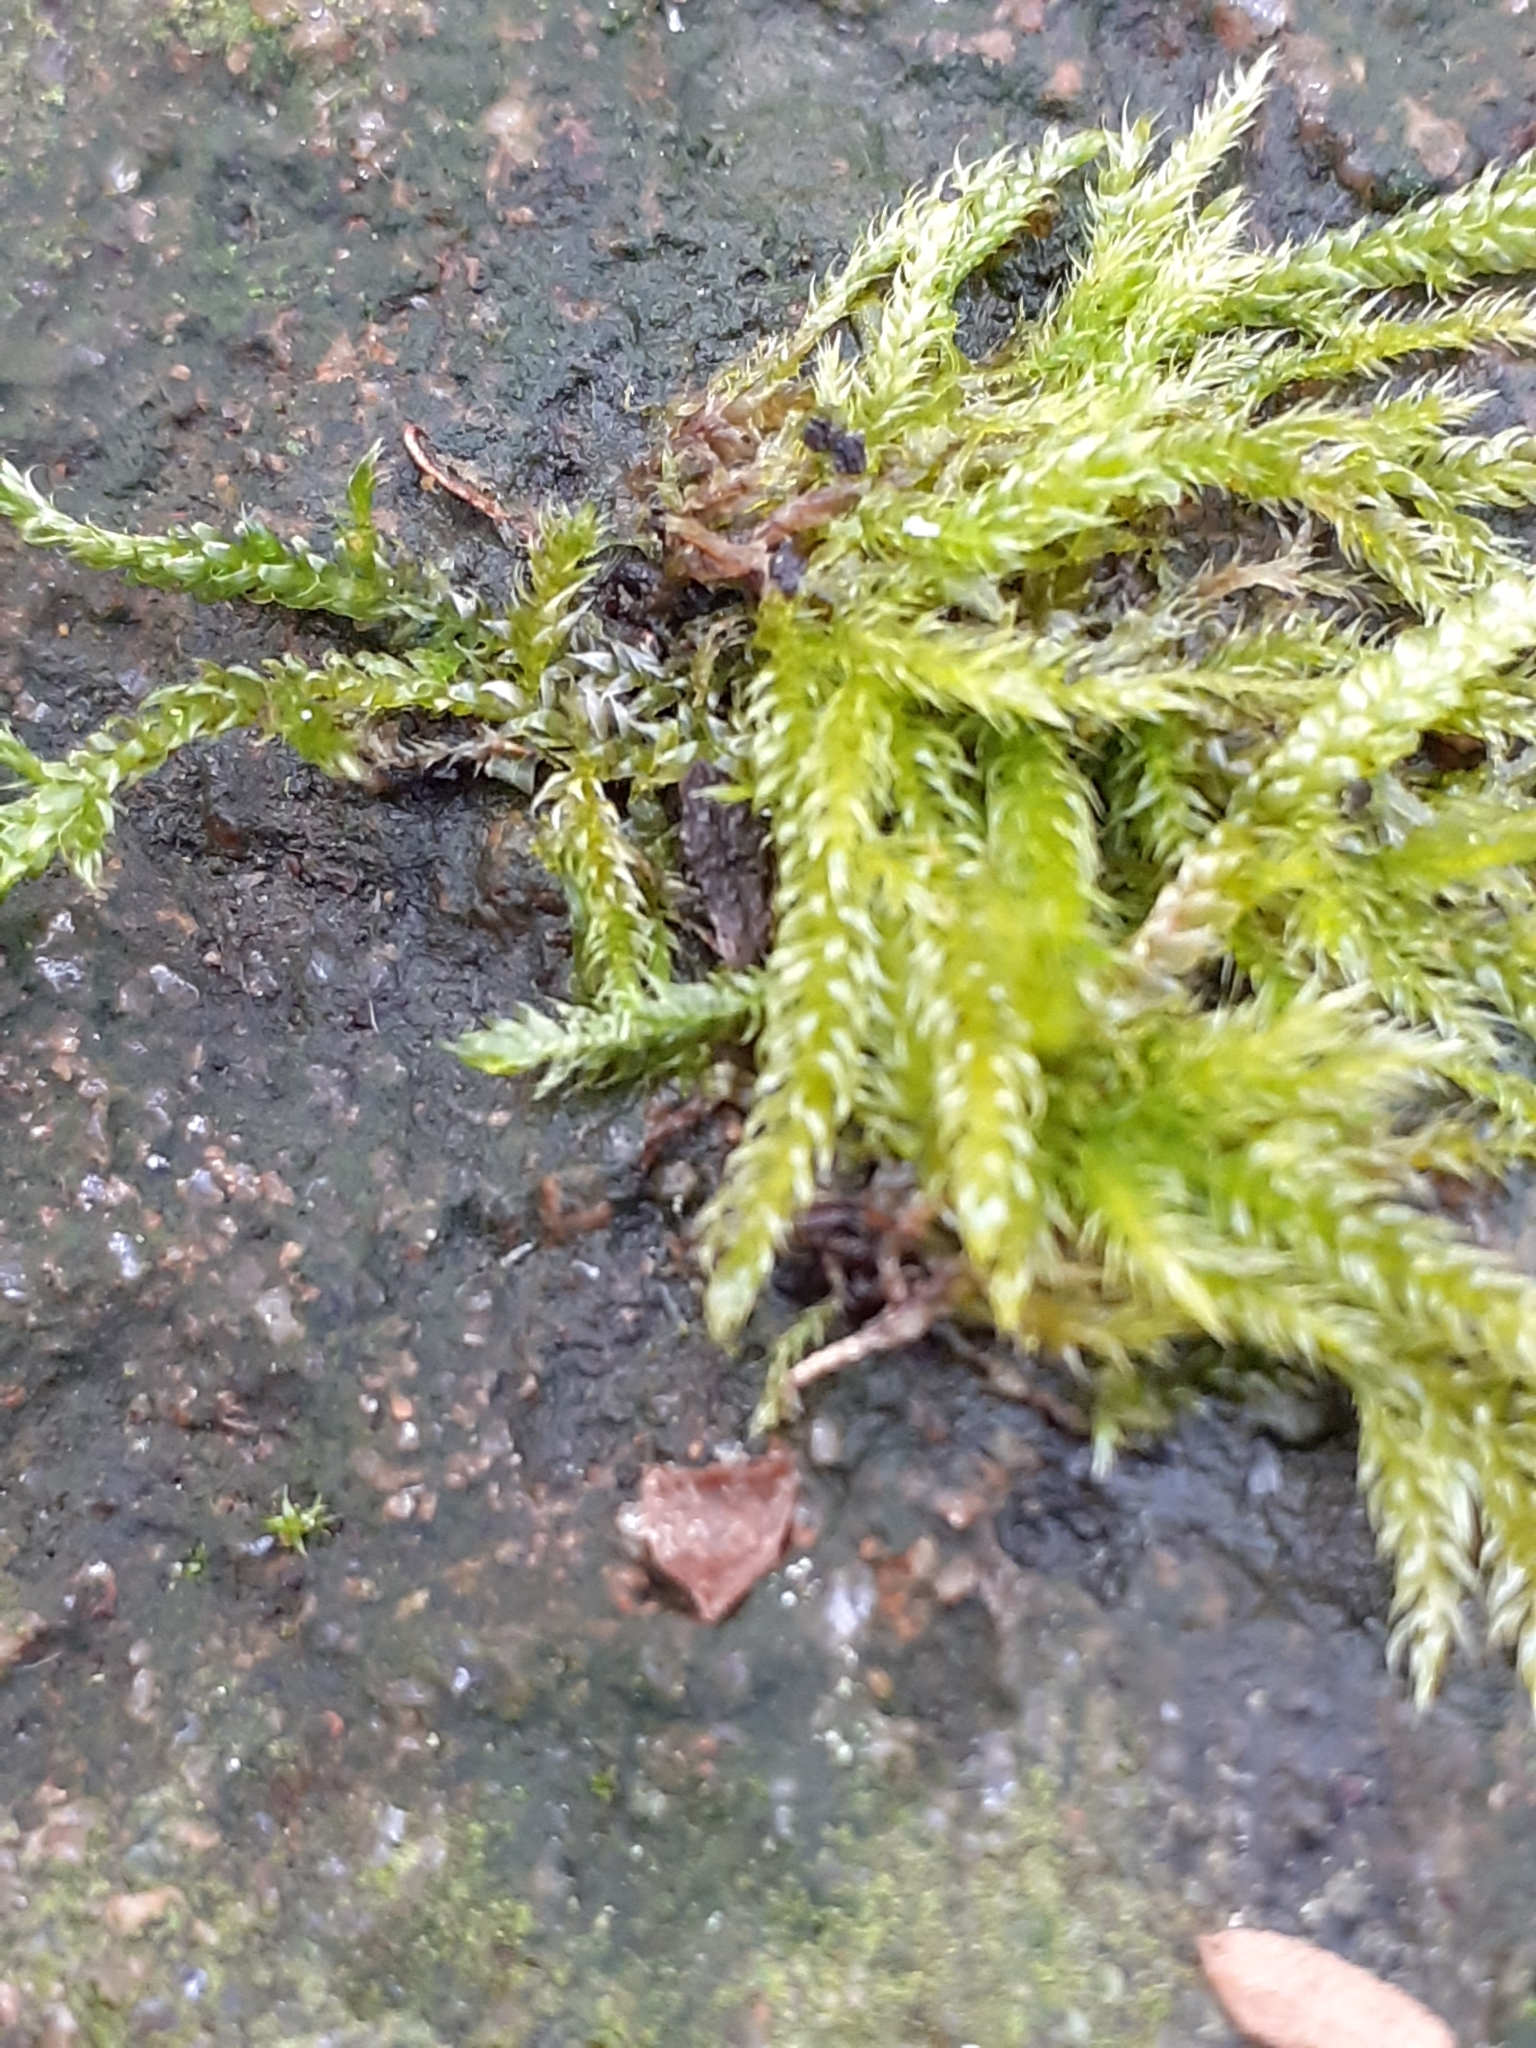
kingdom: Plantae
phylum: Bryophyta
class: Bryopsida
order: Hypnales
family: Hypnaceae
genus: Hypnum
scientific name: Hypnum cupressiforme
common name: Cypress-leaved plait-moss
